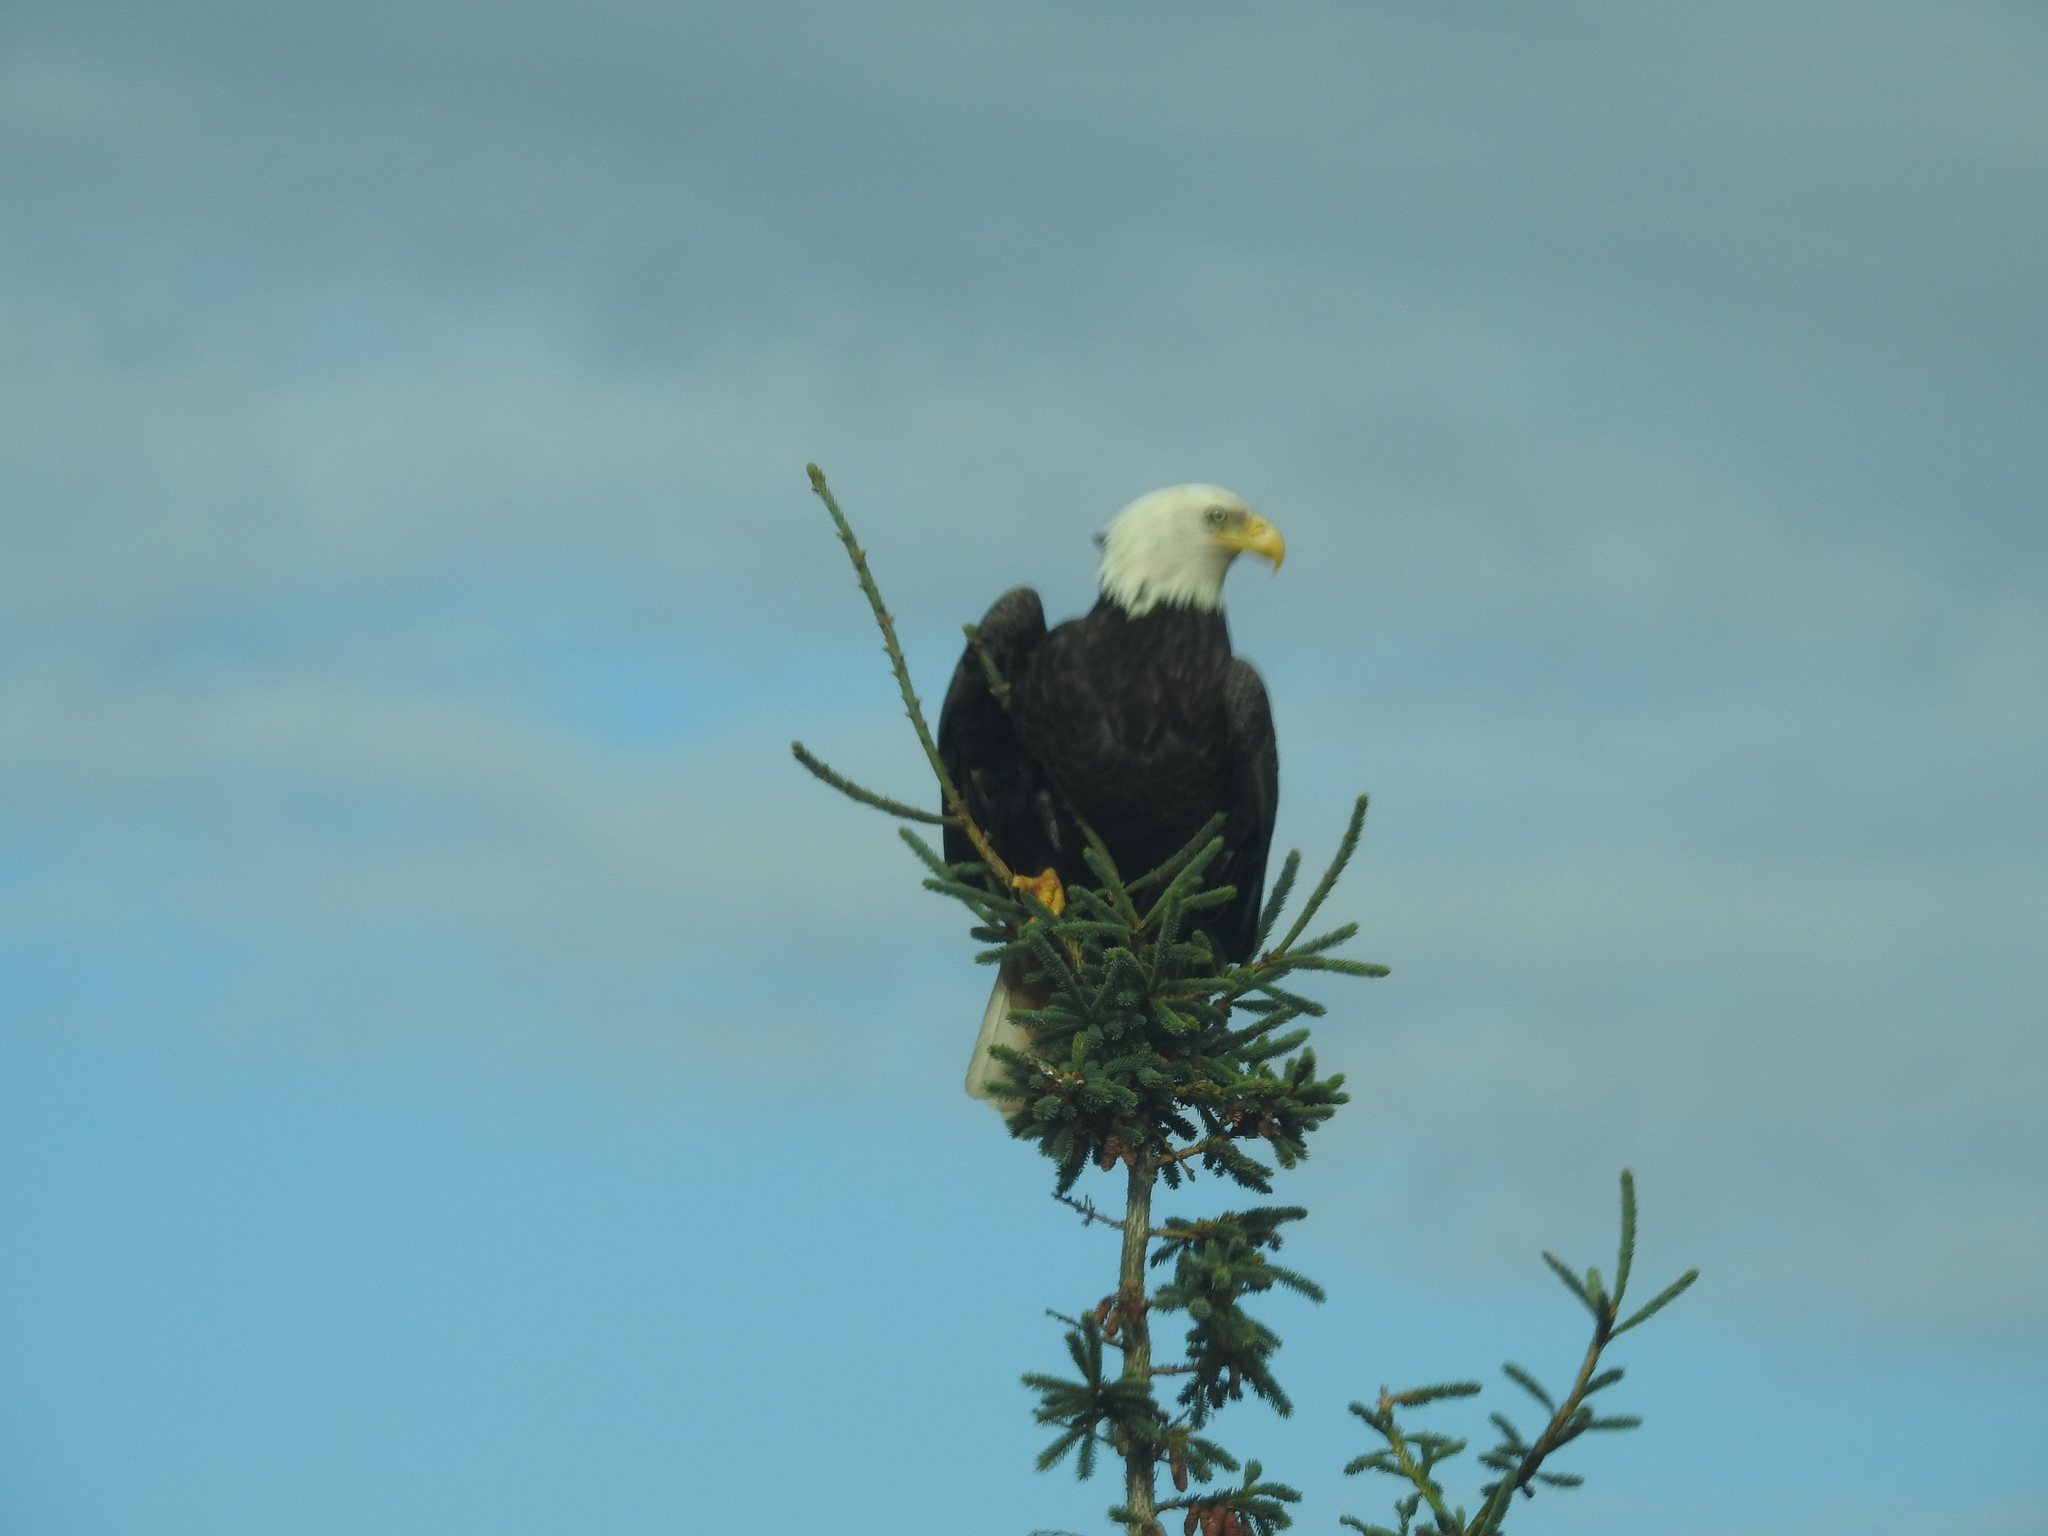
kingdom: Animalia
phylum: Chordata
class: Aves
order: Accipitriformes
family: Accipitridae
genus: Haliaeetus
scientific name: Haliaeetus leucocephalus
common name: Bald eagle
